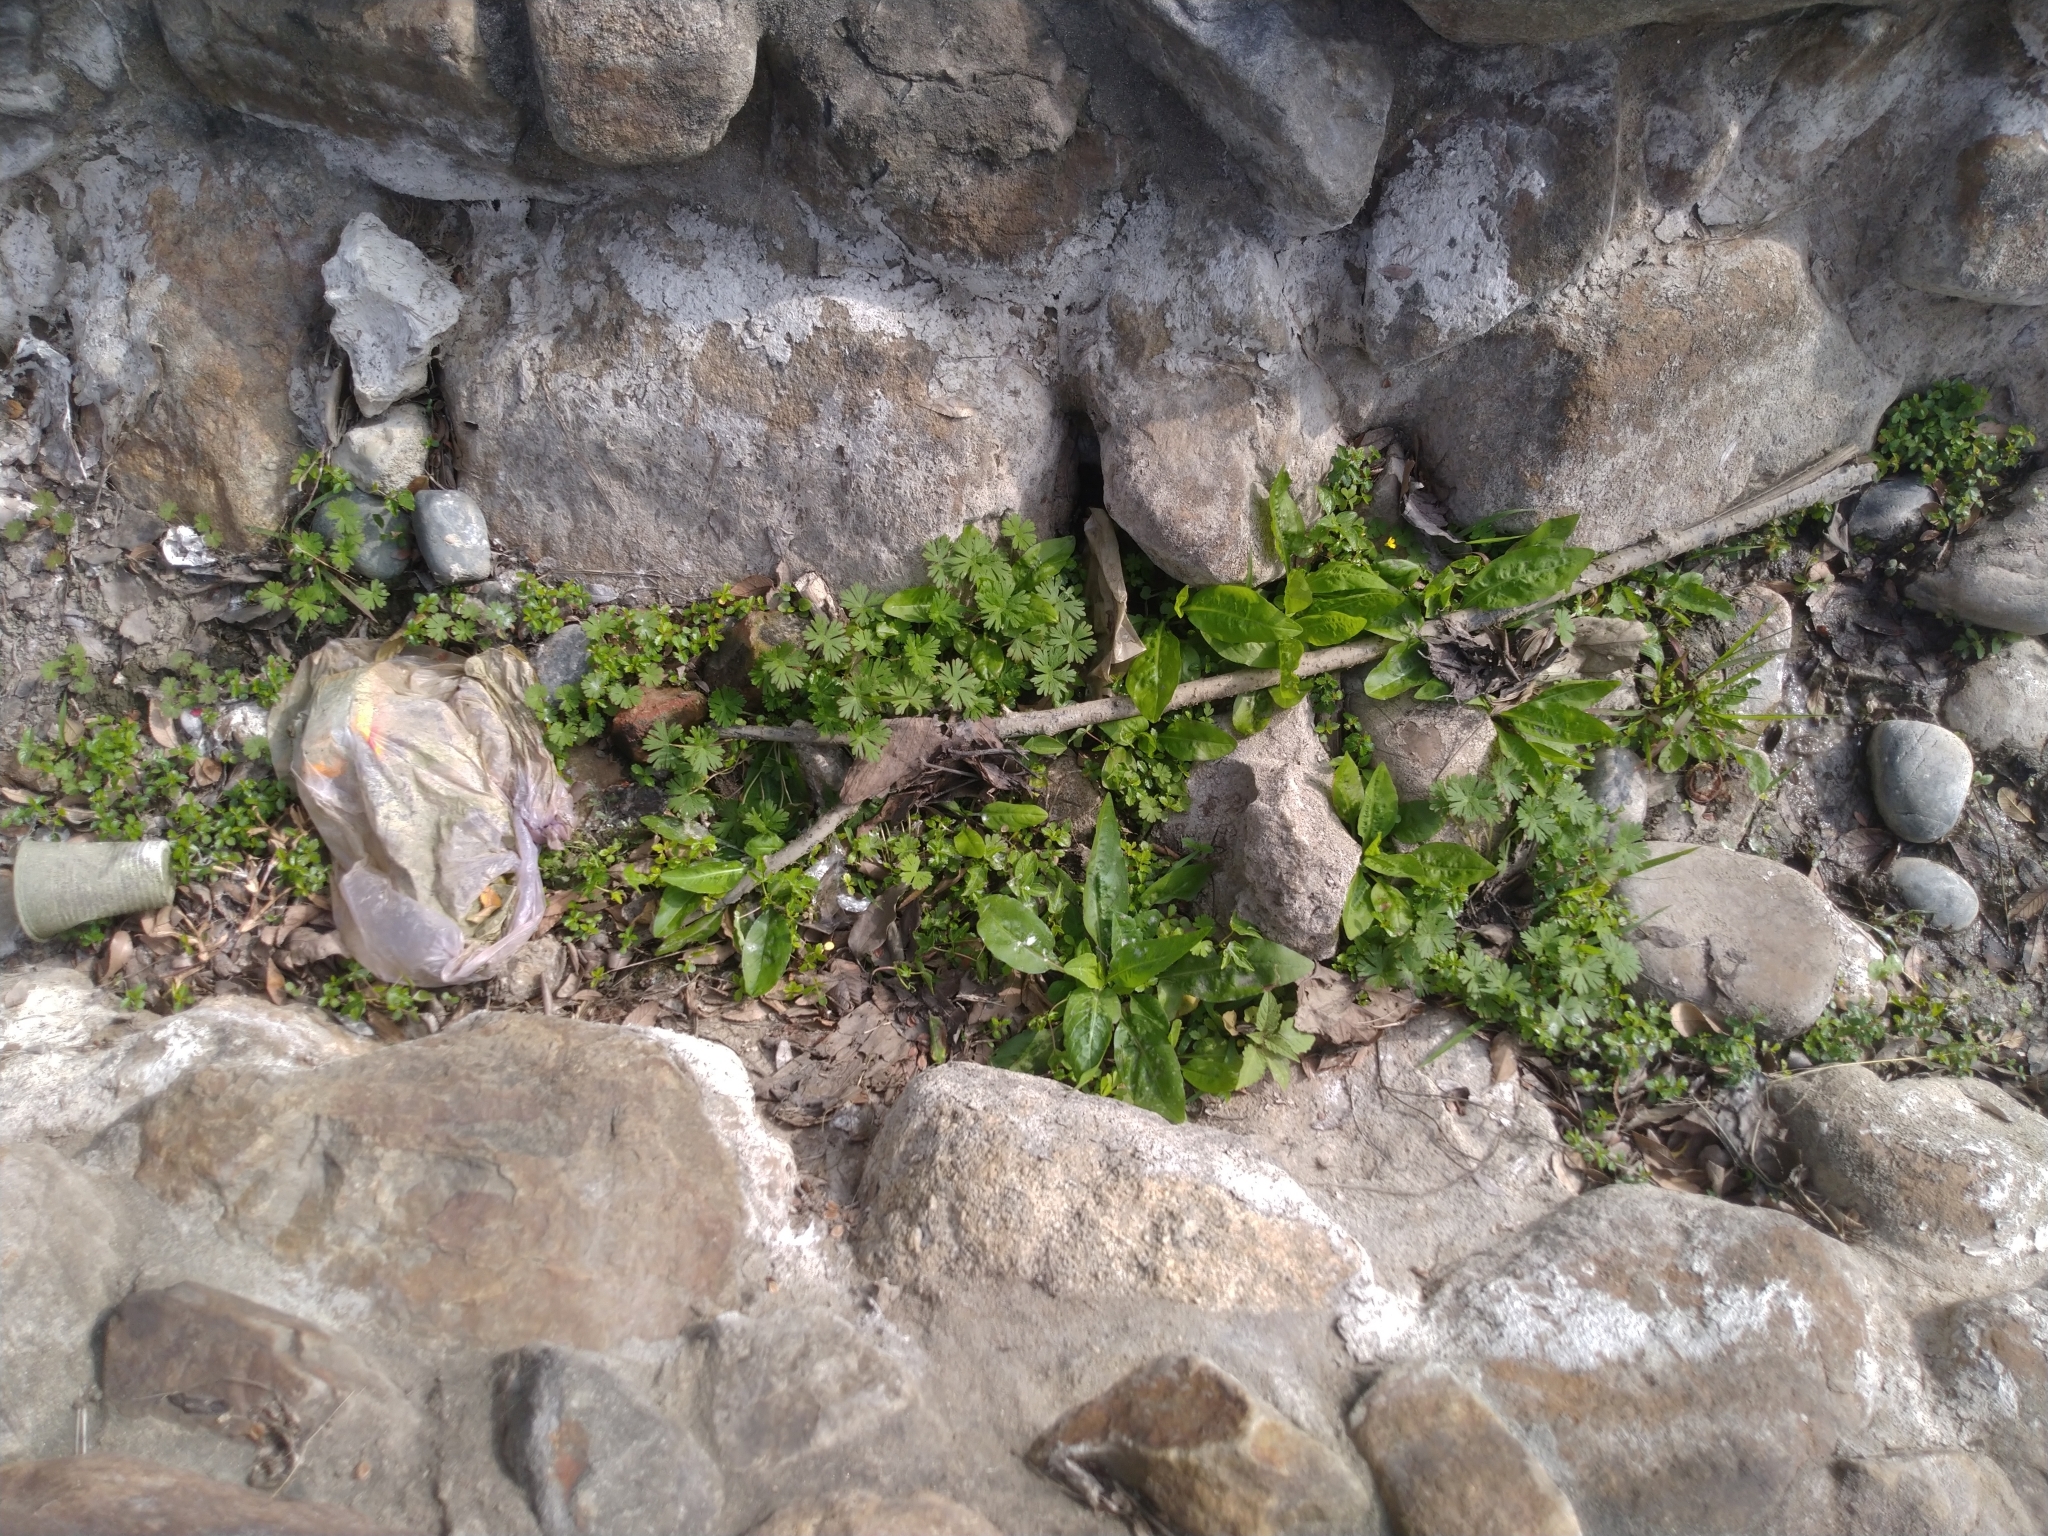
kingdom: Plantae
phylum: Tracheophyta
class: Magnoliopsida
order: Geraniales
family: Geraniaceae
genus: Geranium
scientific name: Geranium carolinianum
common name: Carolina crane's-bill
